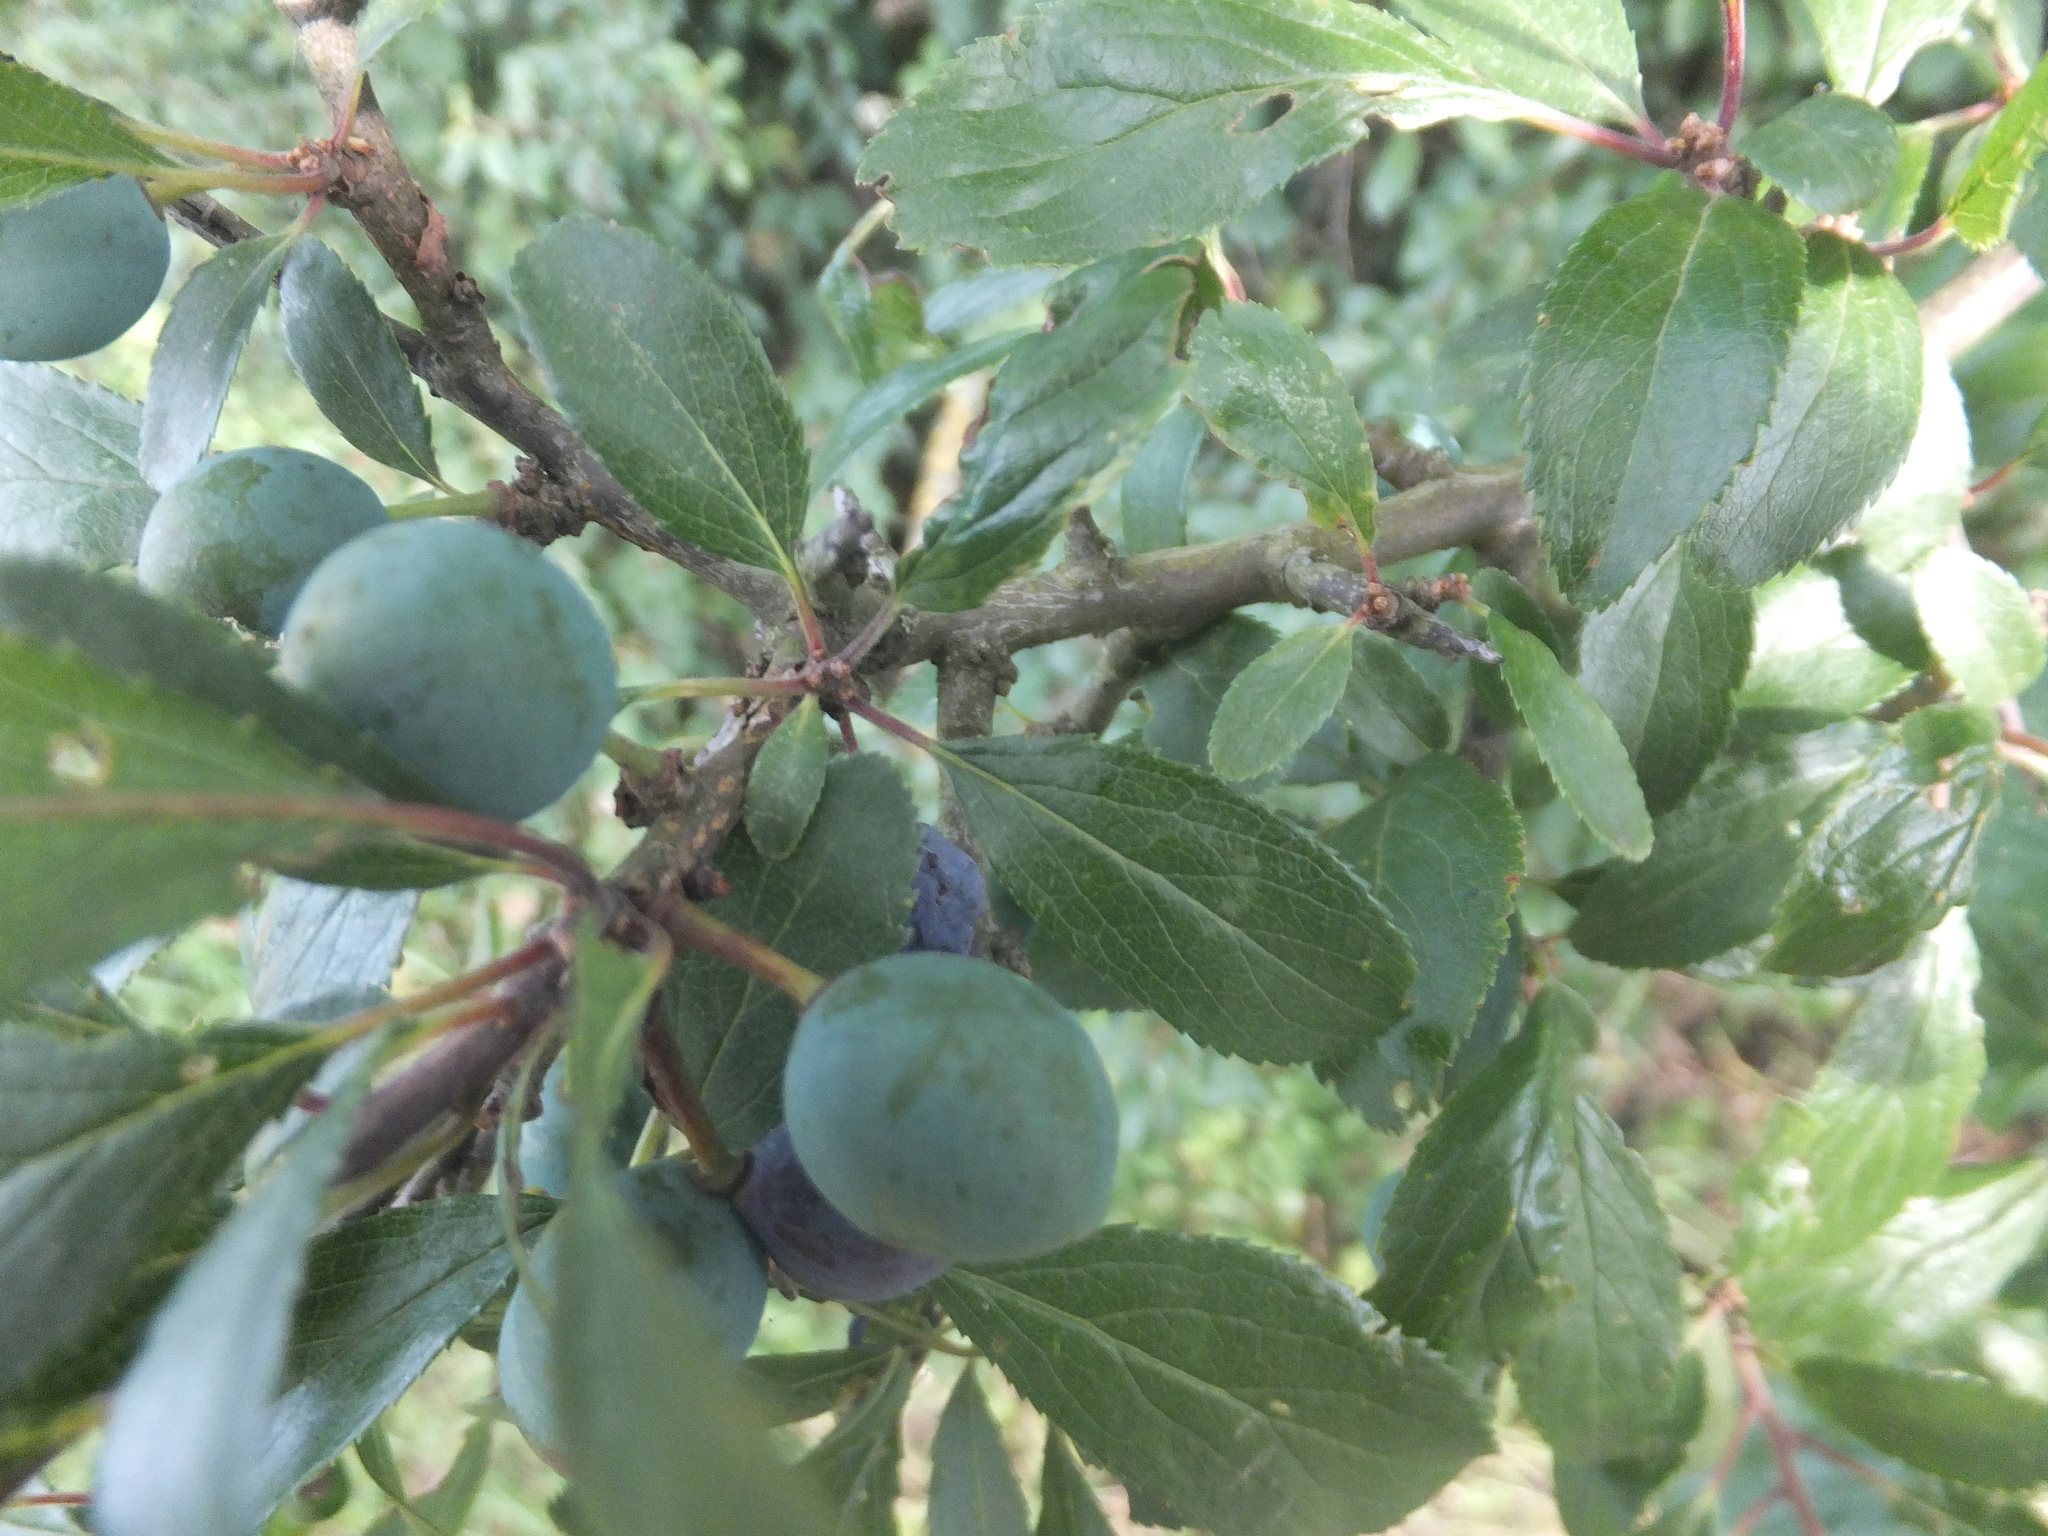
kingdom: Plantae
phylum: Tracheophyta
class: Magnoliopsida
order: Rosales
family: Rosaceae
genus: Prunus
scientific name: Prunus spinosa
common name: Blackthorn
